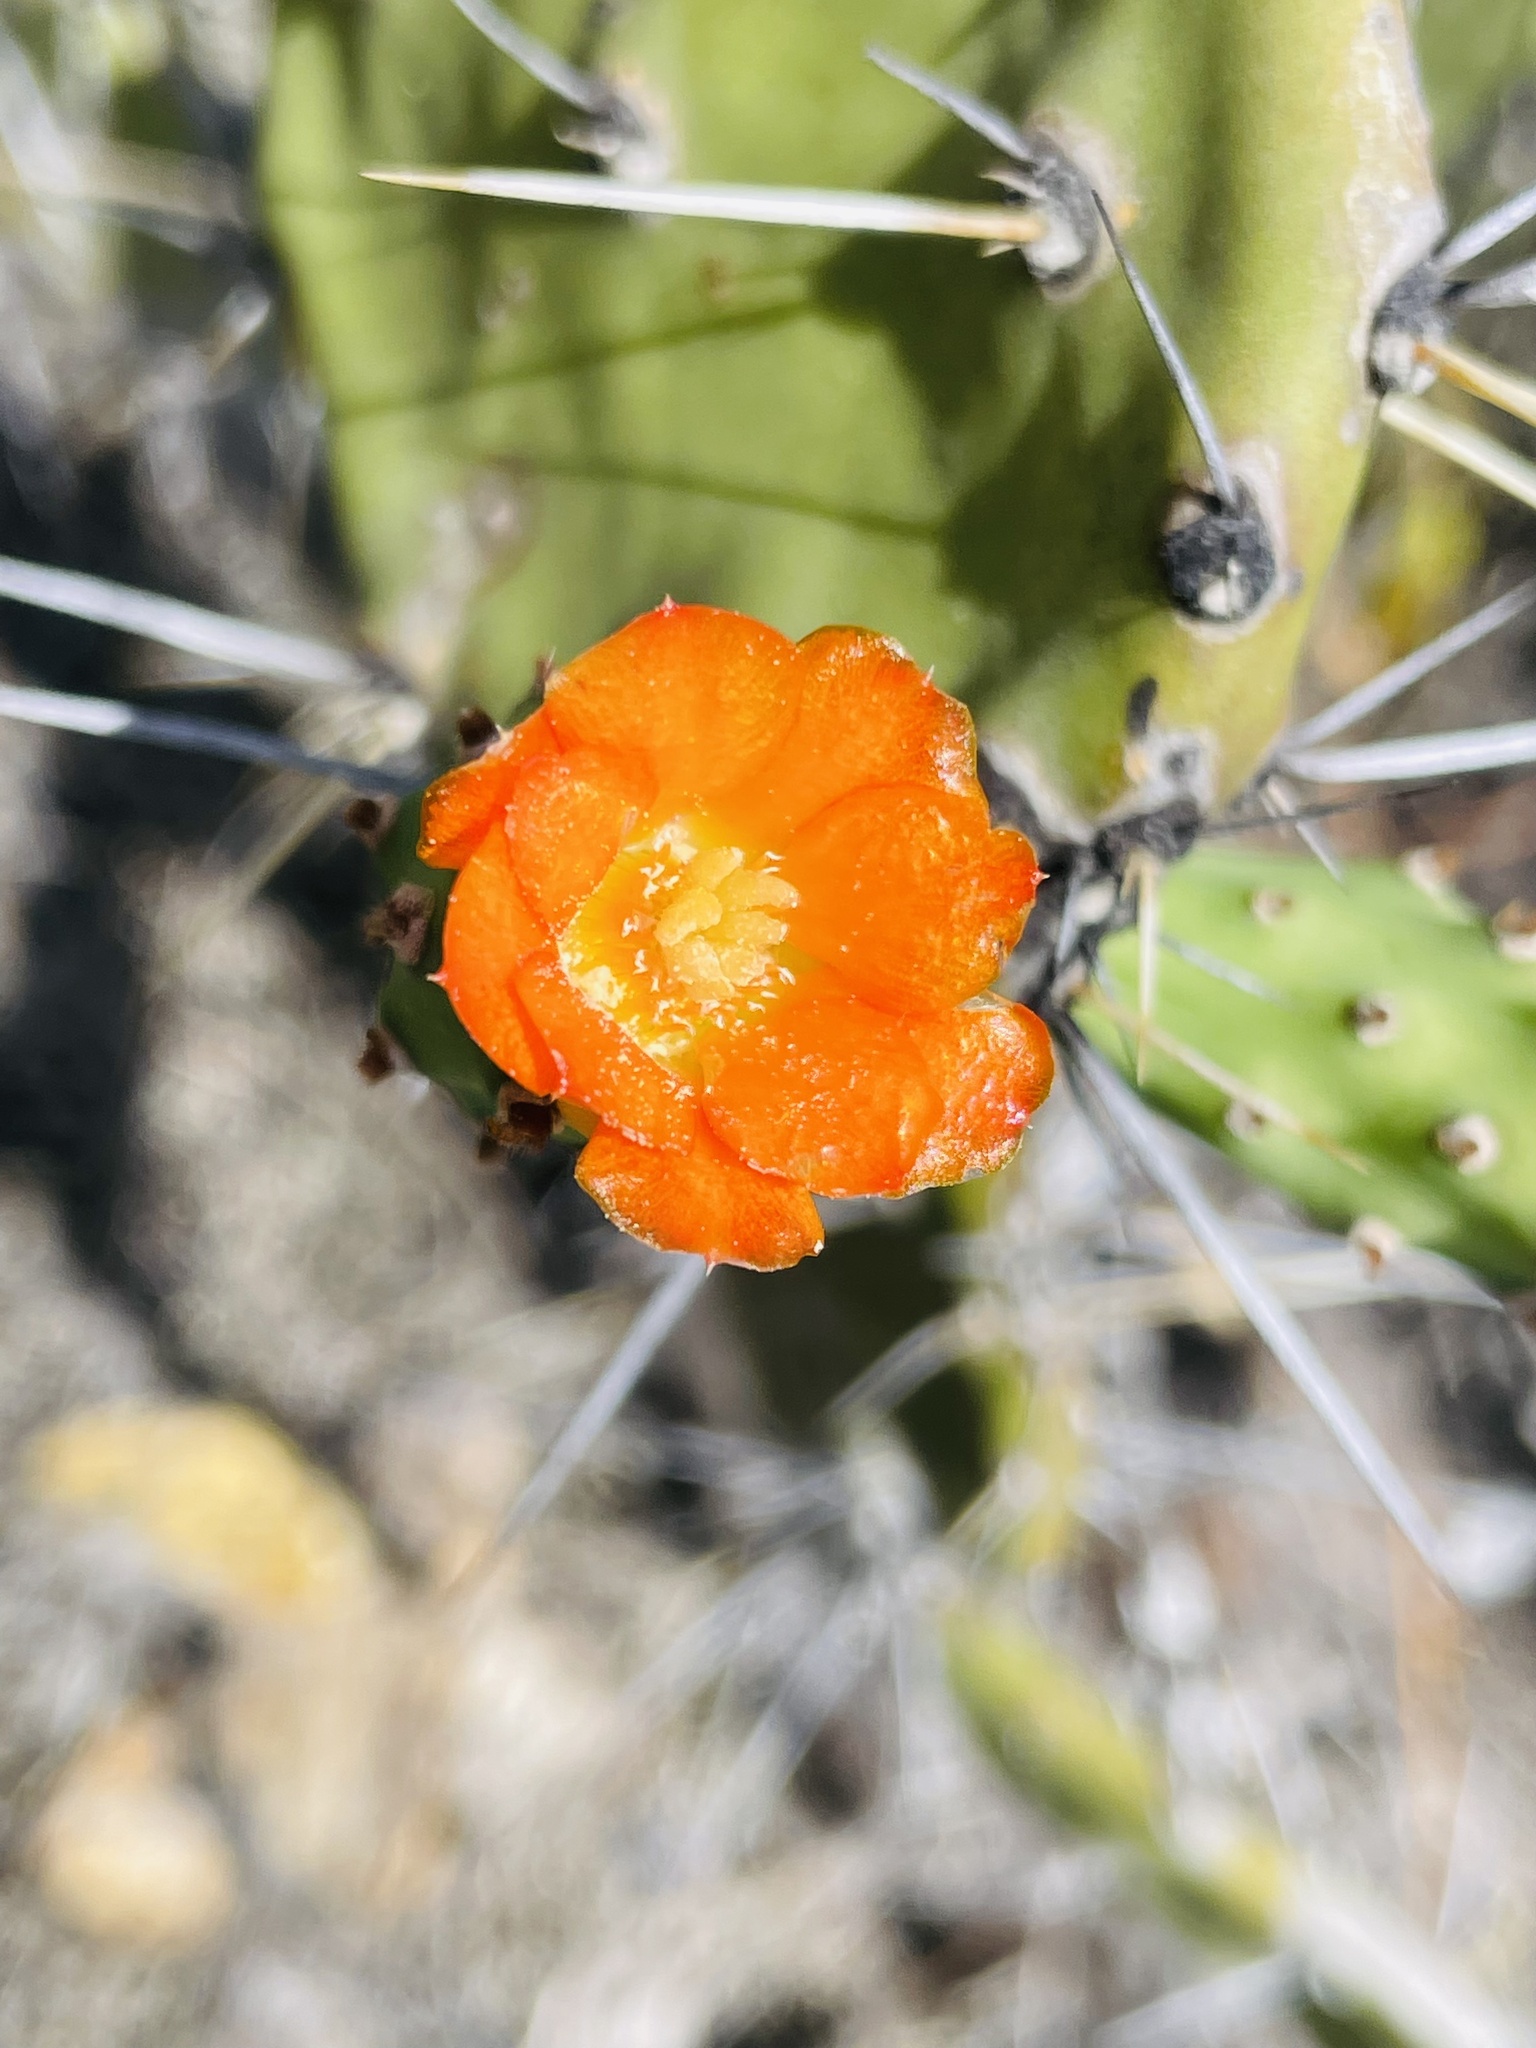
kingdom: Plantae
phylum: Tracheophyta
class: Magnoliopsida
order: Caryophyllales
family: Cactaceae
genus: Opuntia
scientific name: Opuntia soederstromiana
